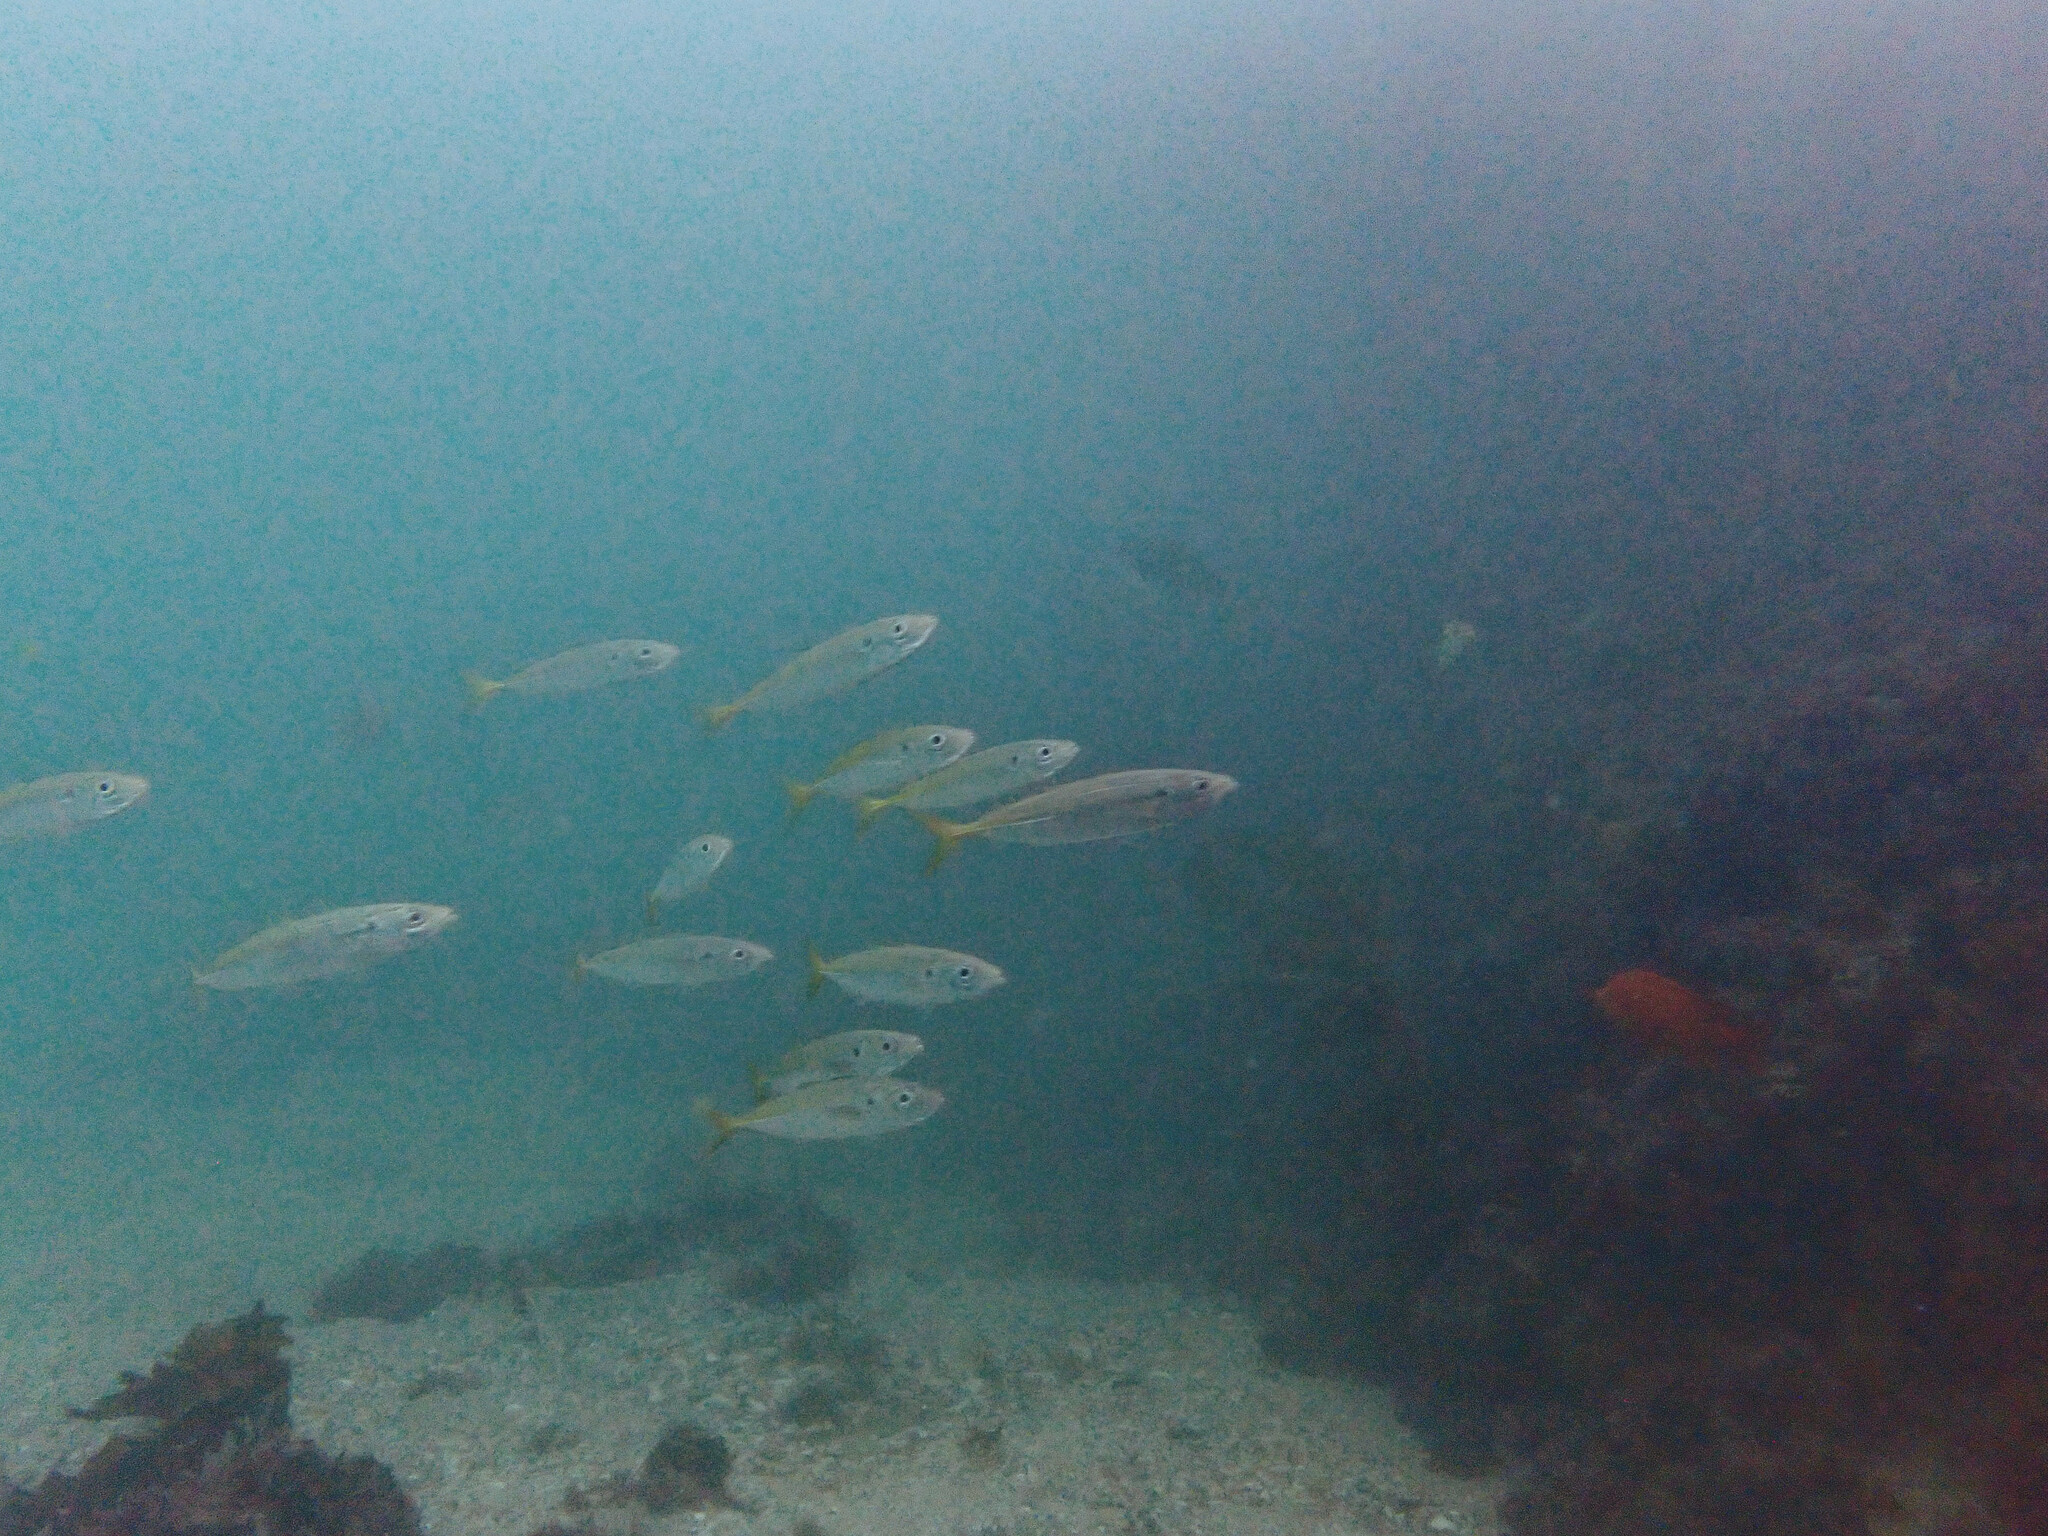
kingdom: Animalia
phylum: Chordata
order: Perciformes
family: Carangidae
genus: Trachurus
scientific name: Trachurus symmetricus
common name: Jack mackerel
